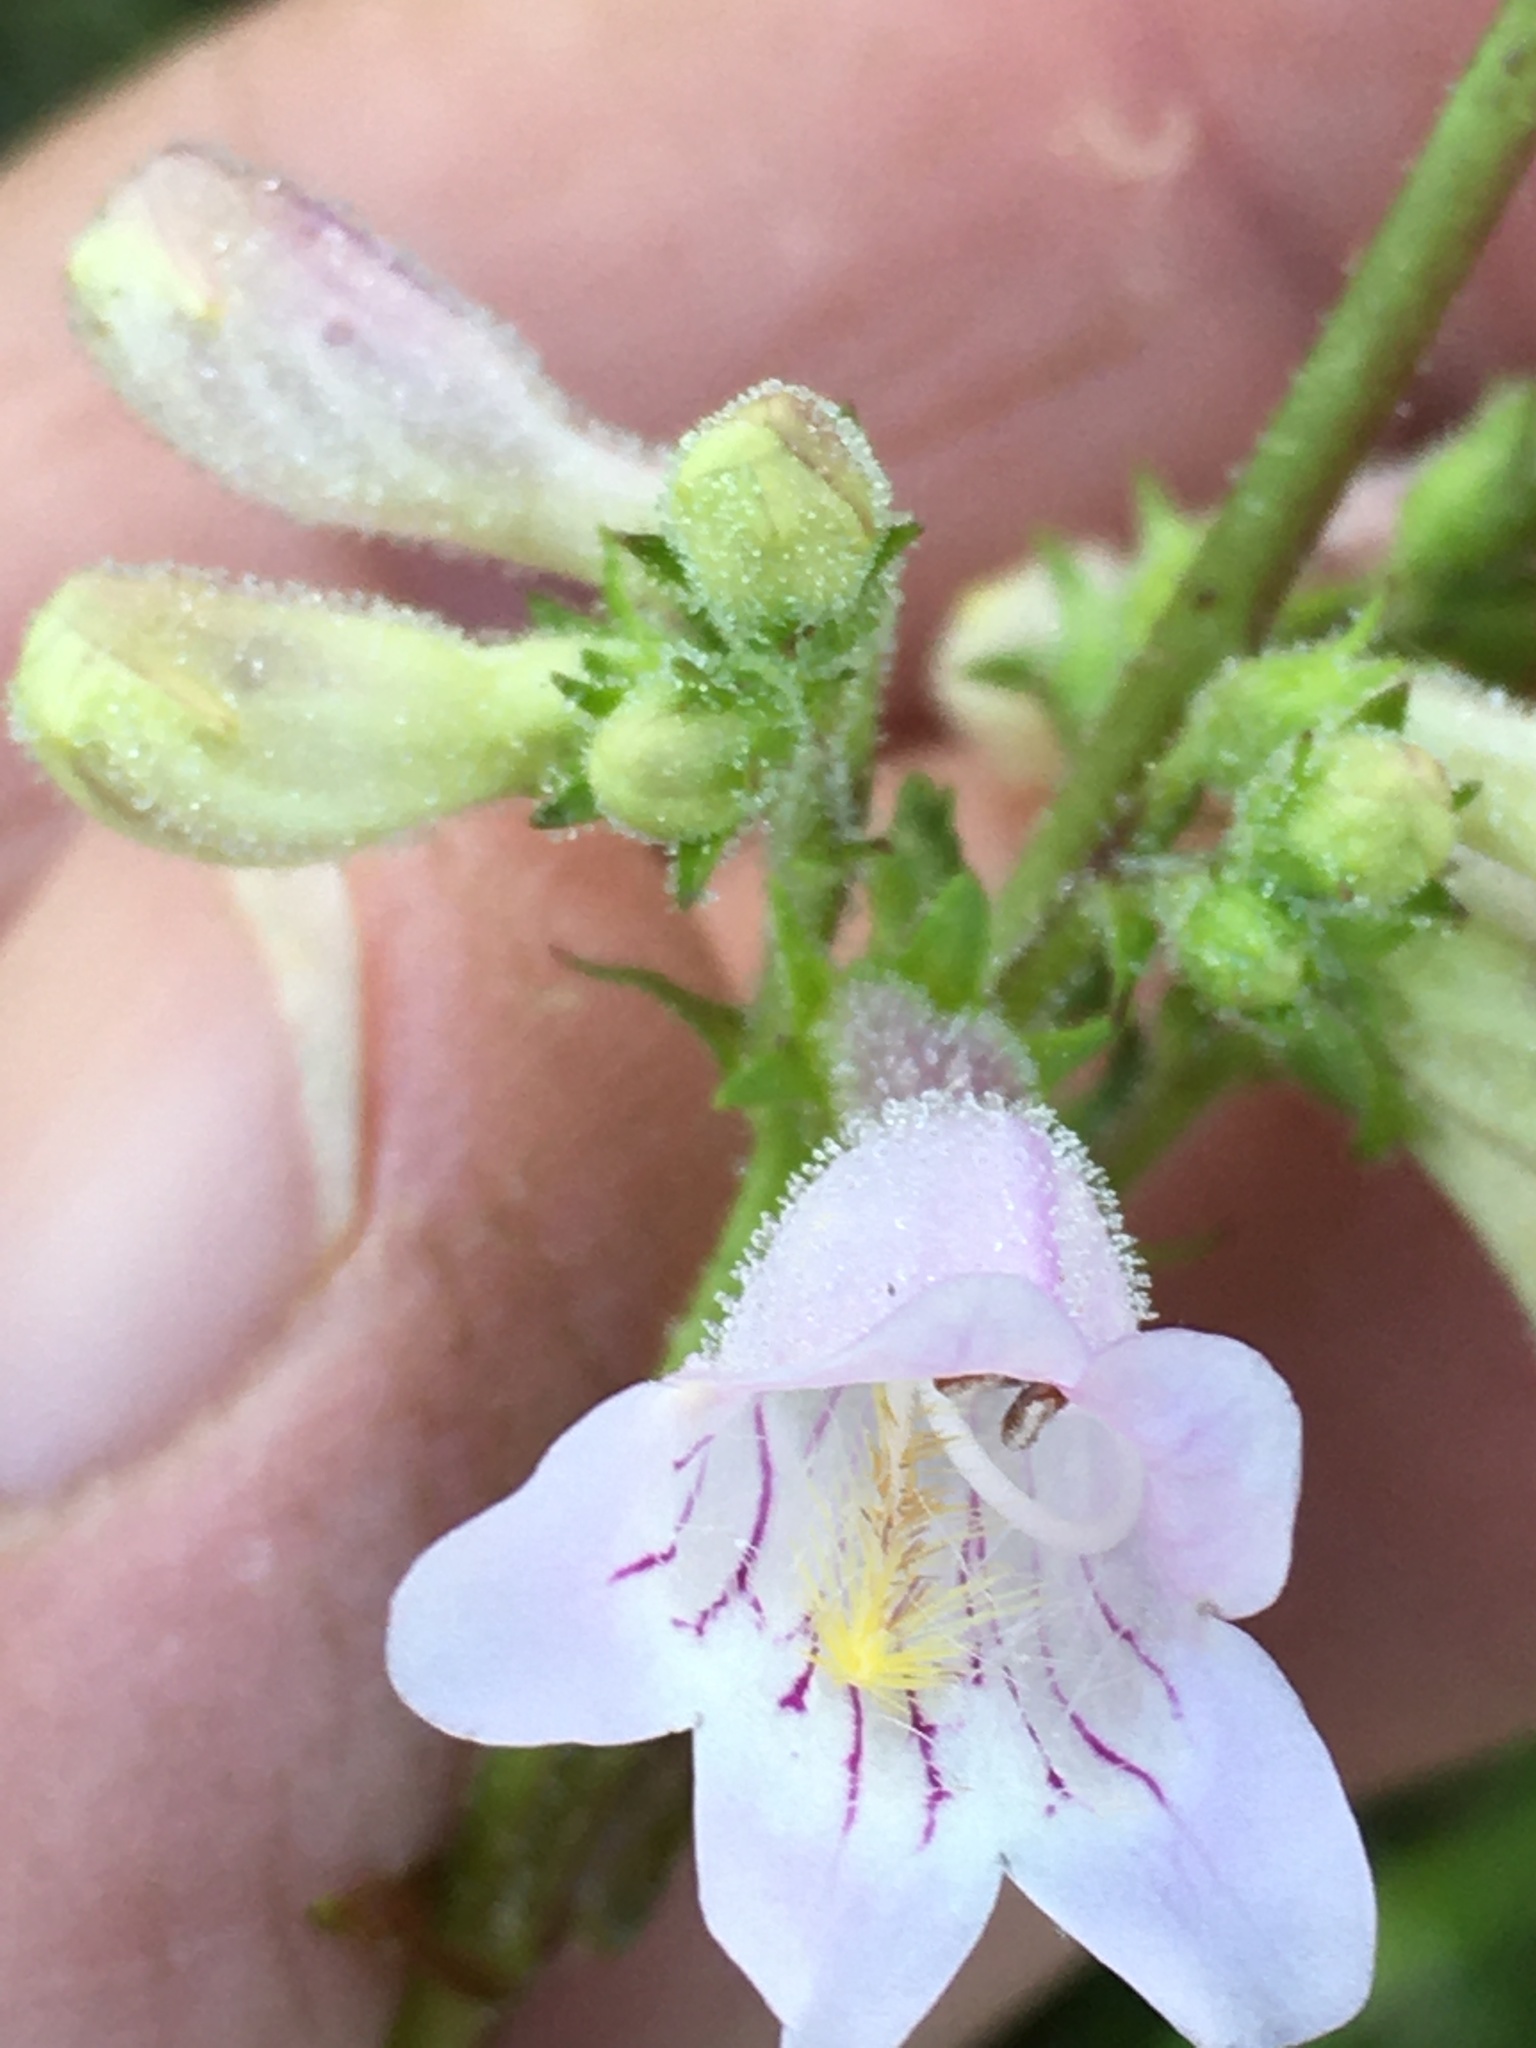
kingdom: Plantae
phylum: Tracheophyta
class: Magnoliopsida
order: Lamiales
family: Plantaginaceae
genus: Penstemon
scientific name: Penstemon laevigatus
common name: Eastern beardtongue
